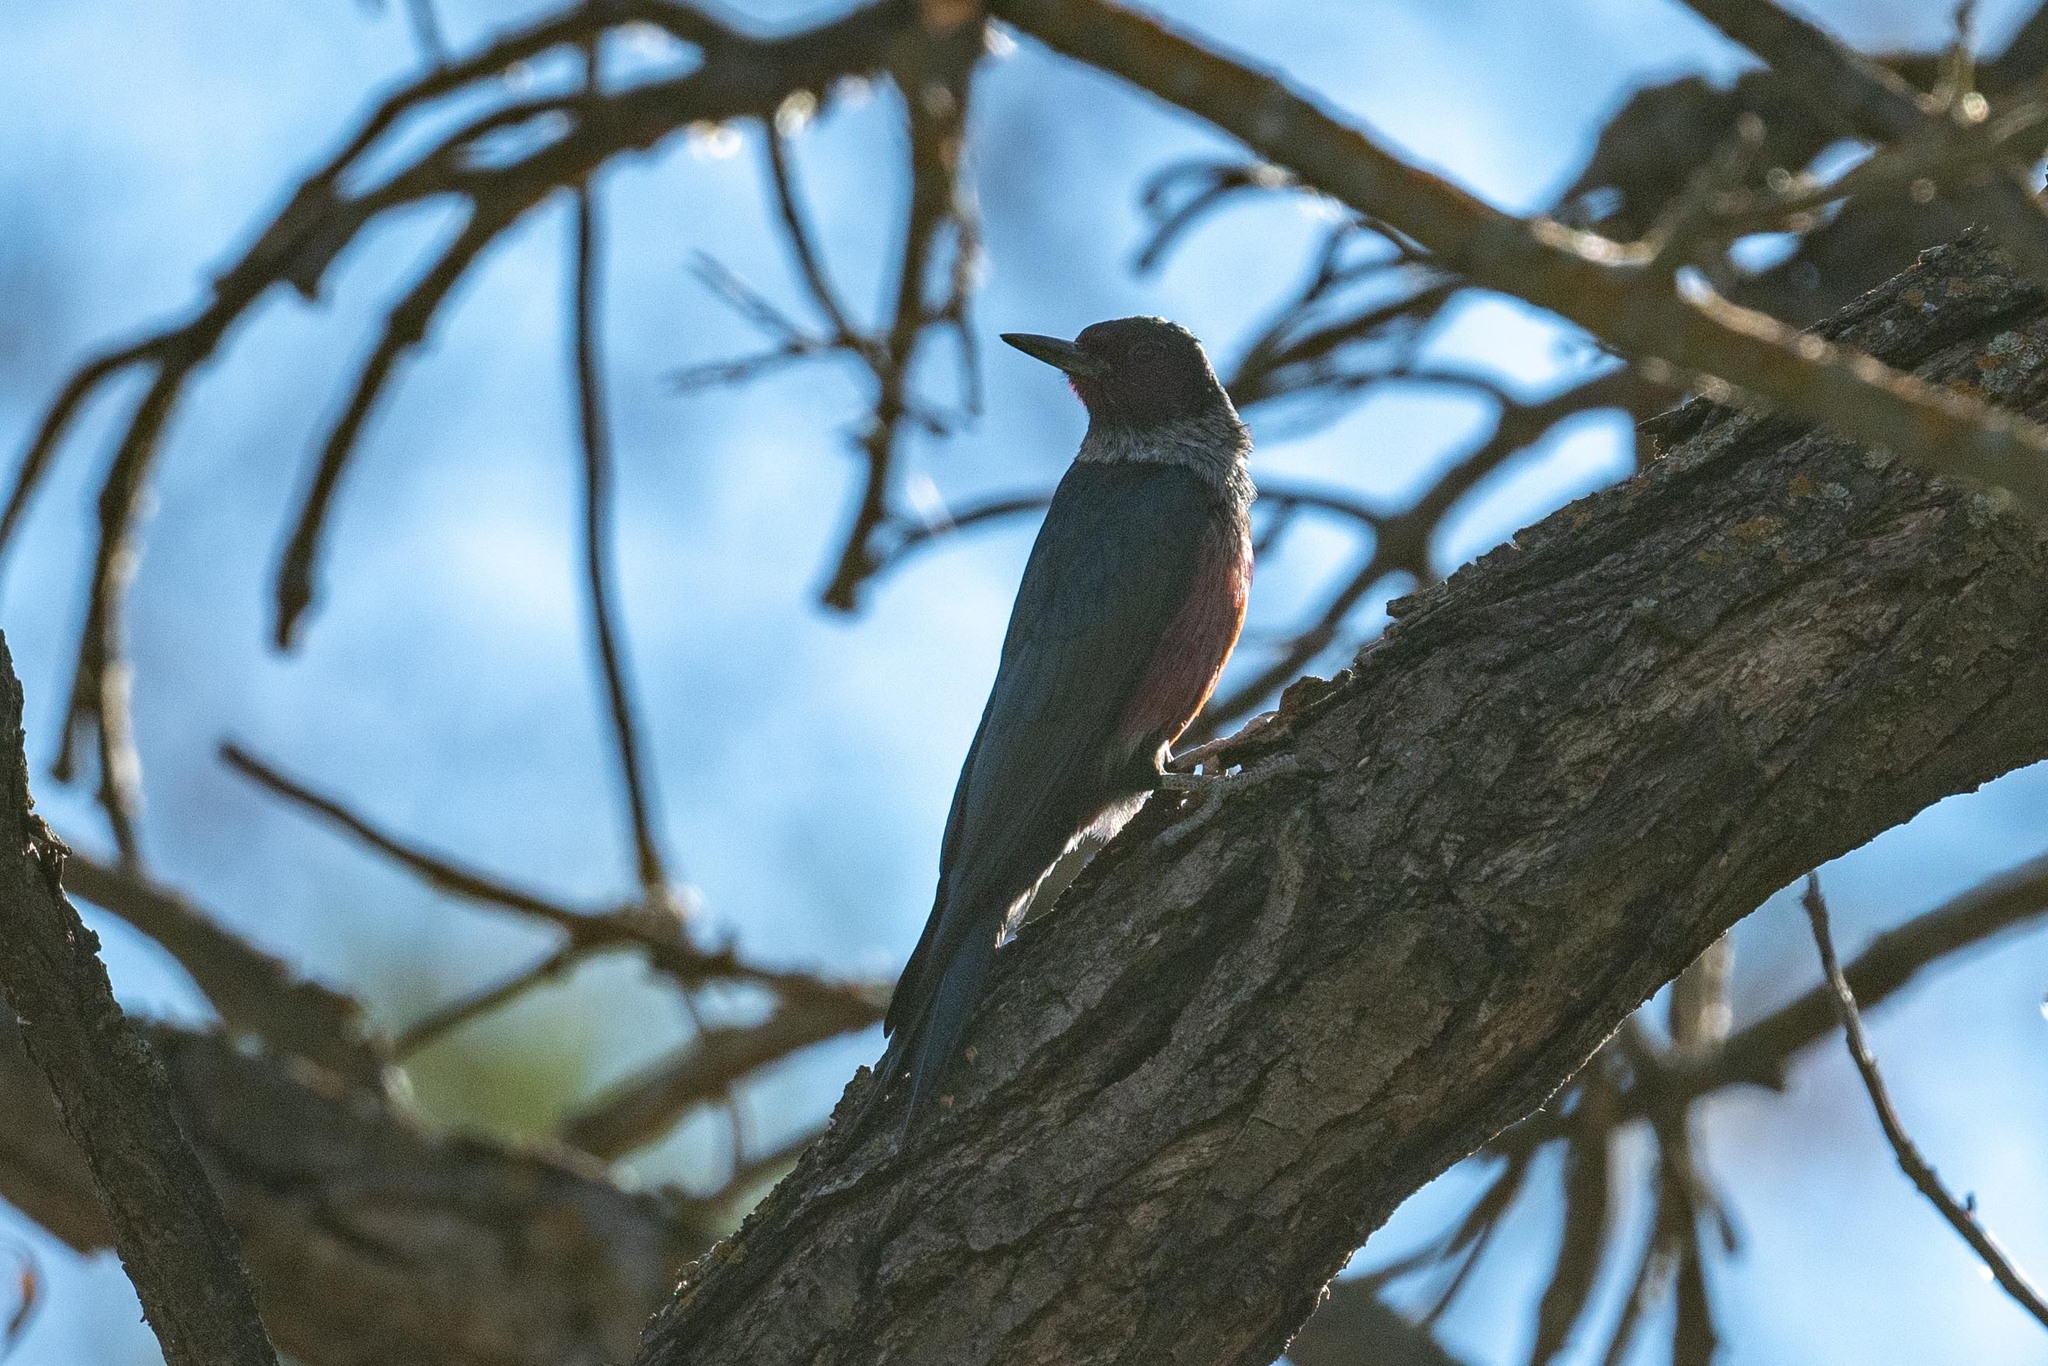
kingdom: Animalia
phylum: Chordata
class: Aves
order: Piciformes
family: Picidae
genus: Melanerpes
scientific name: Melanerpes lewis
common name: Lewis's woodpecker
